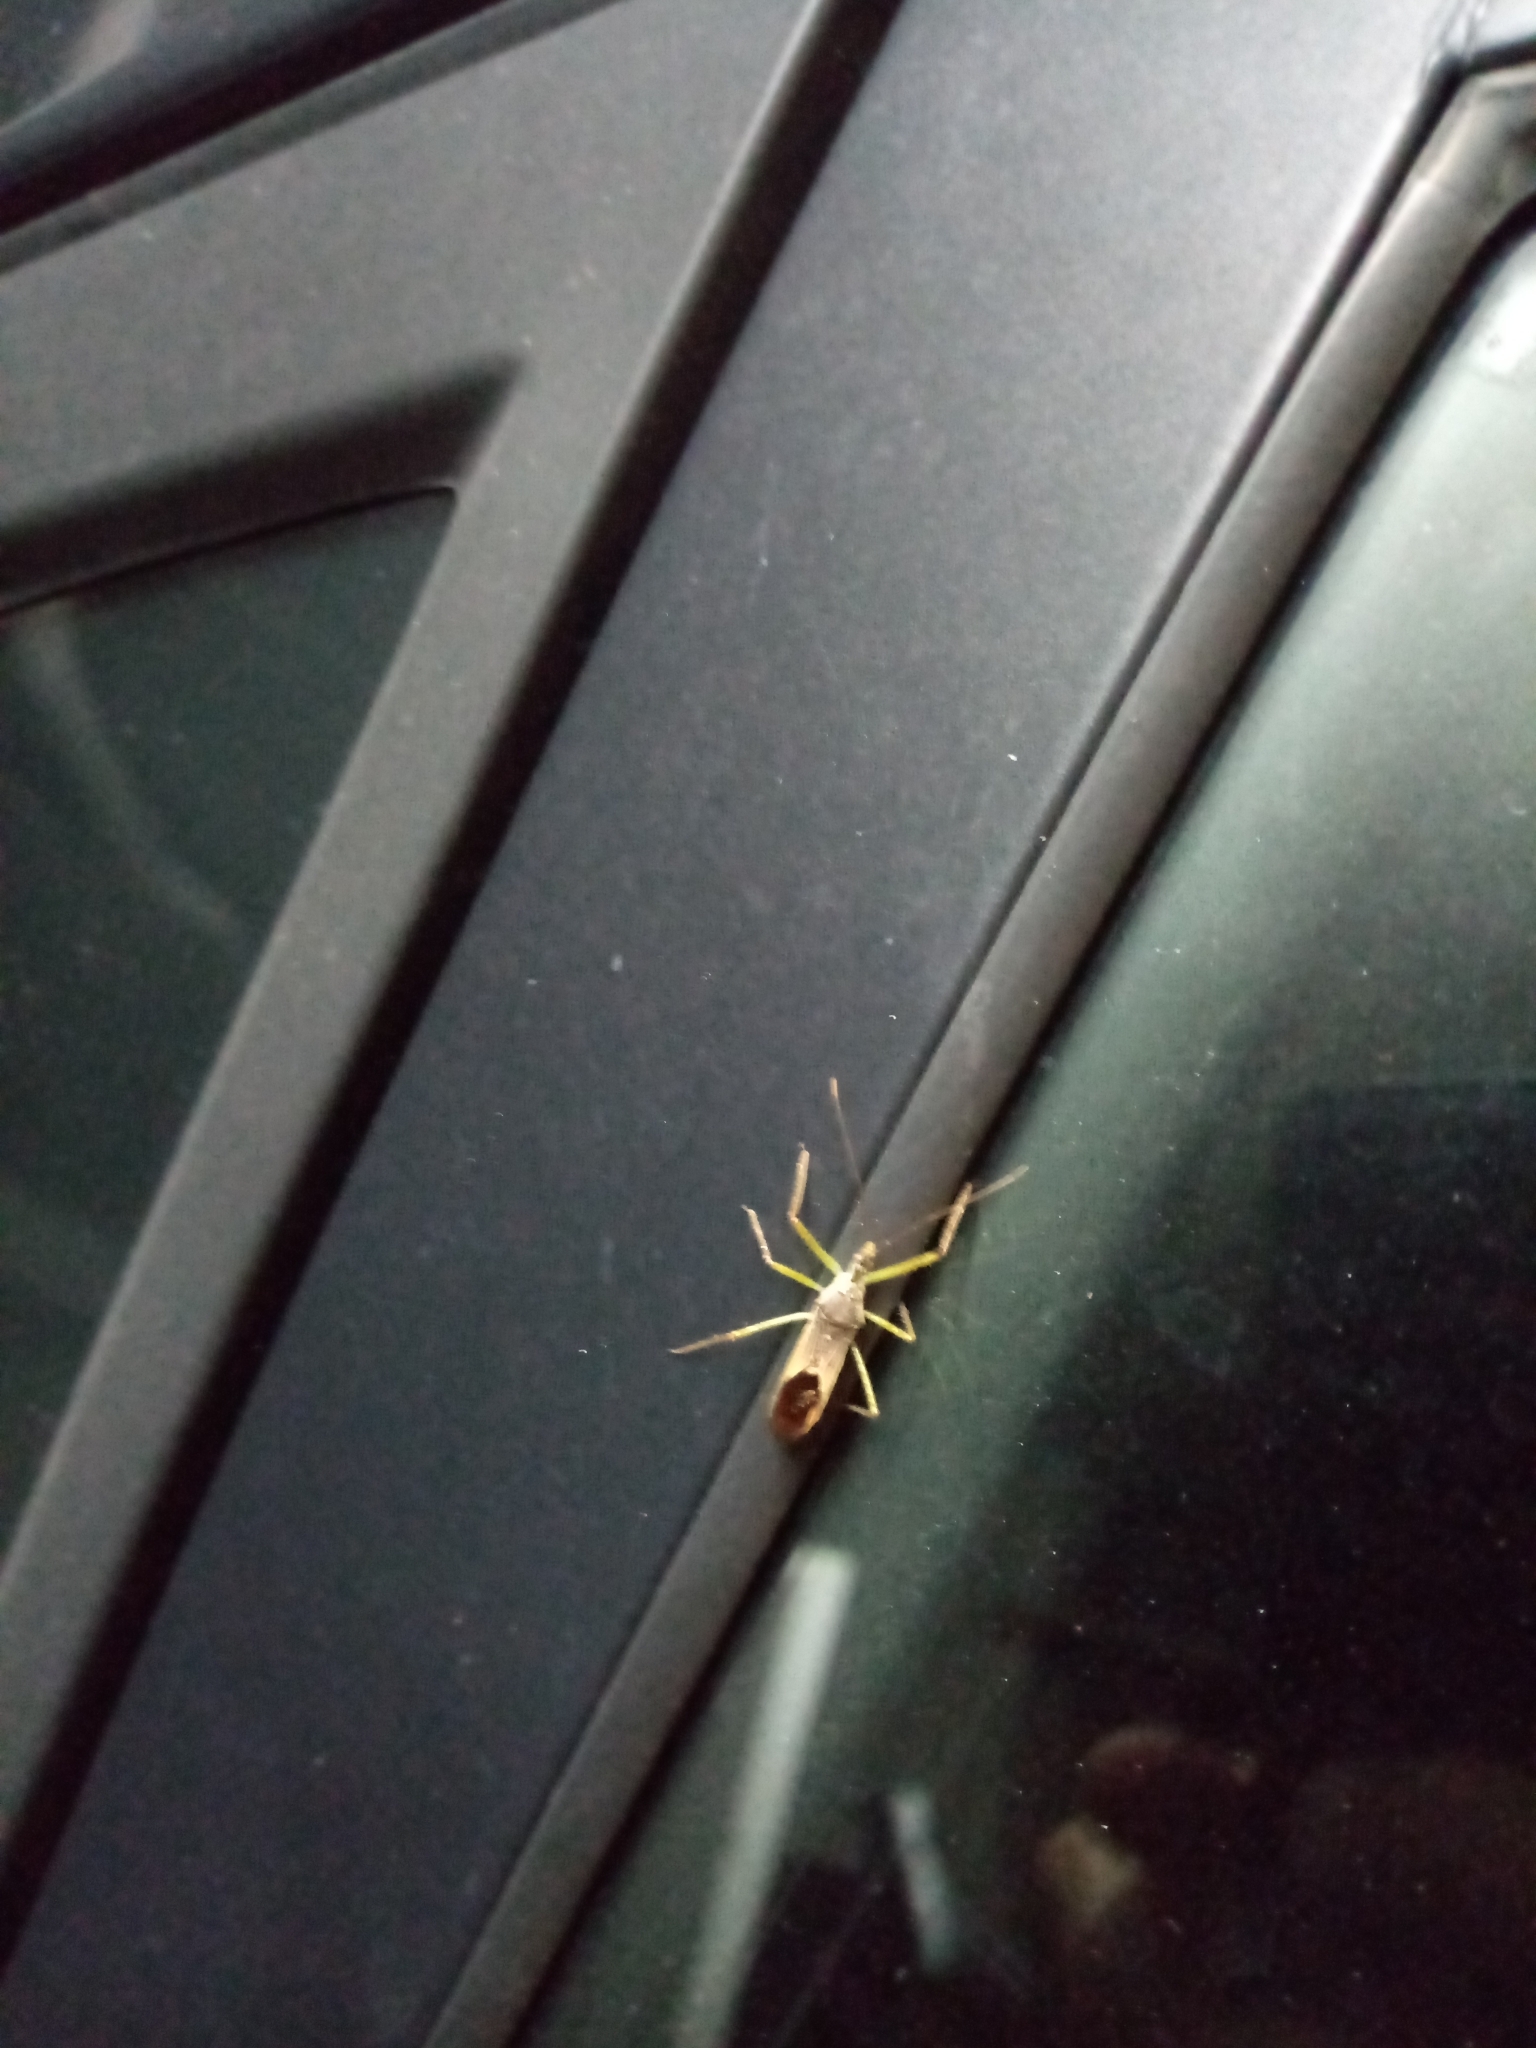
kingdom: Animalia
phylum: Arthropoda
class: Insecta
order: Hemiptera
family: Reduviidae
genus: Zelus
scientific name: Zelus renardii
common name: Assassin bug
